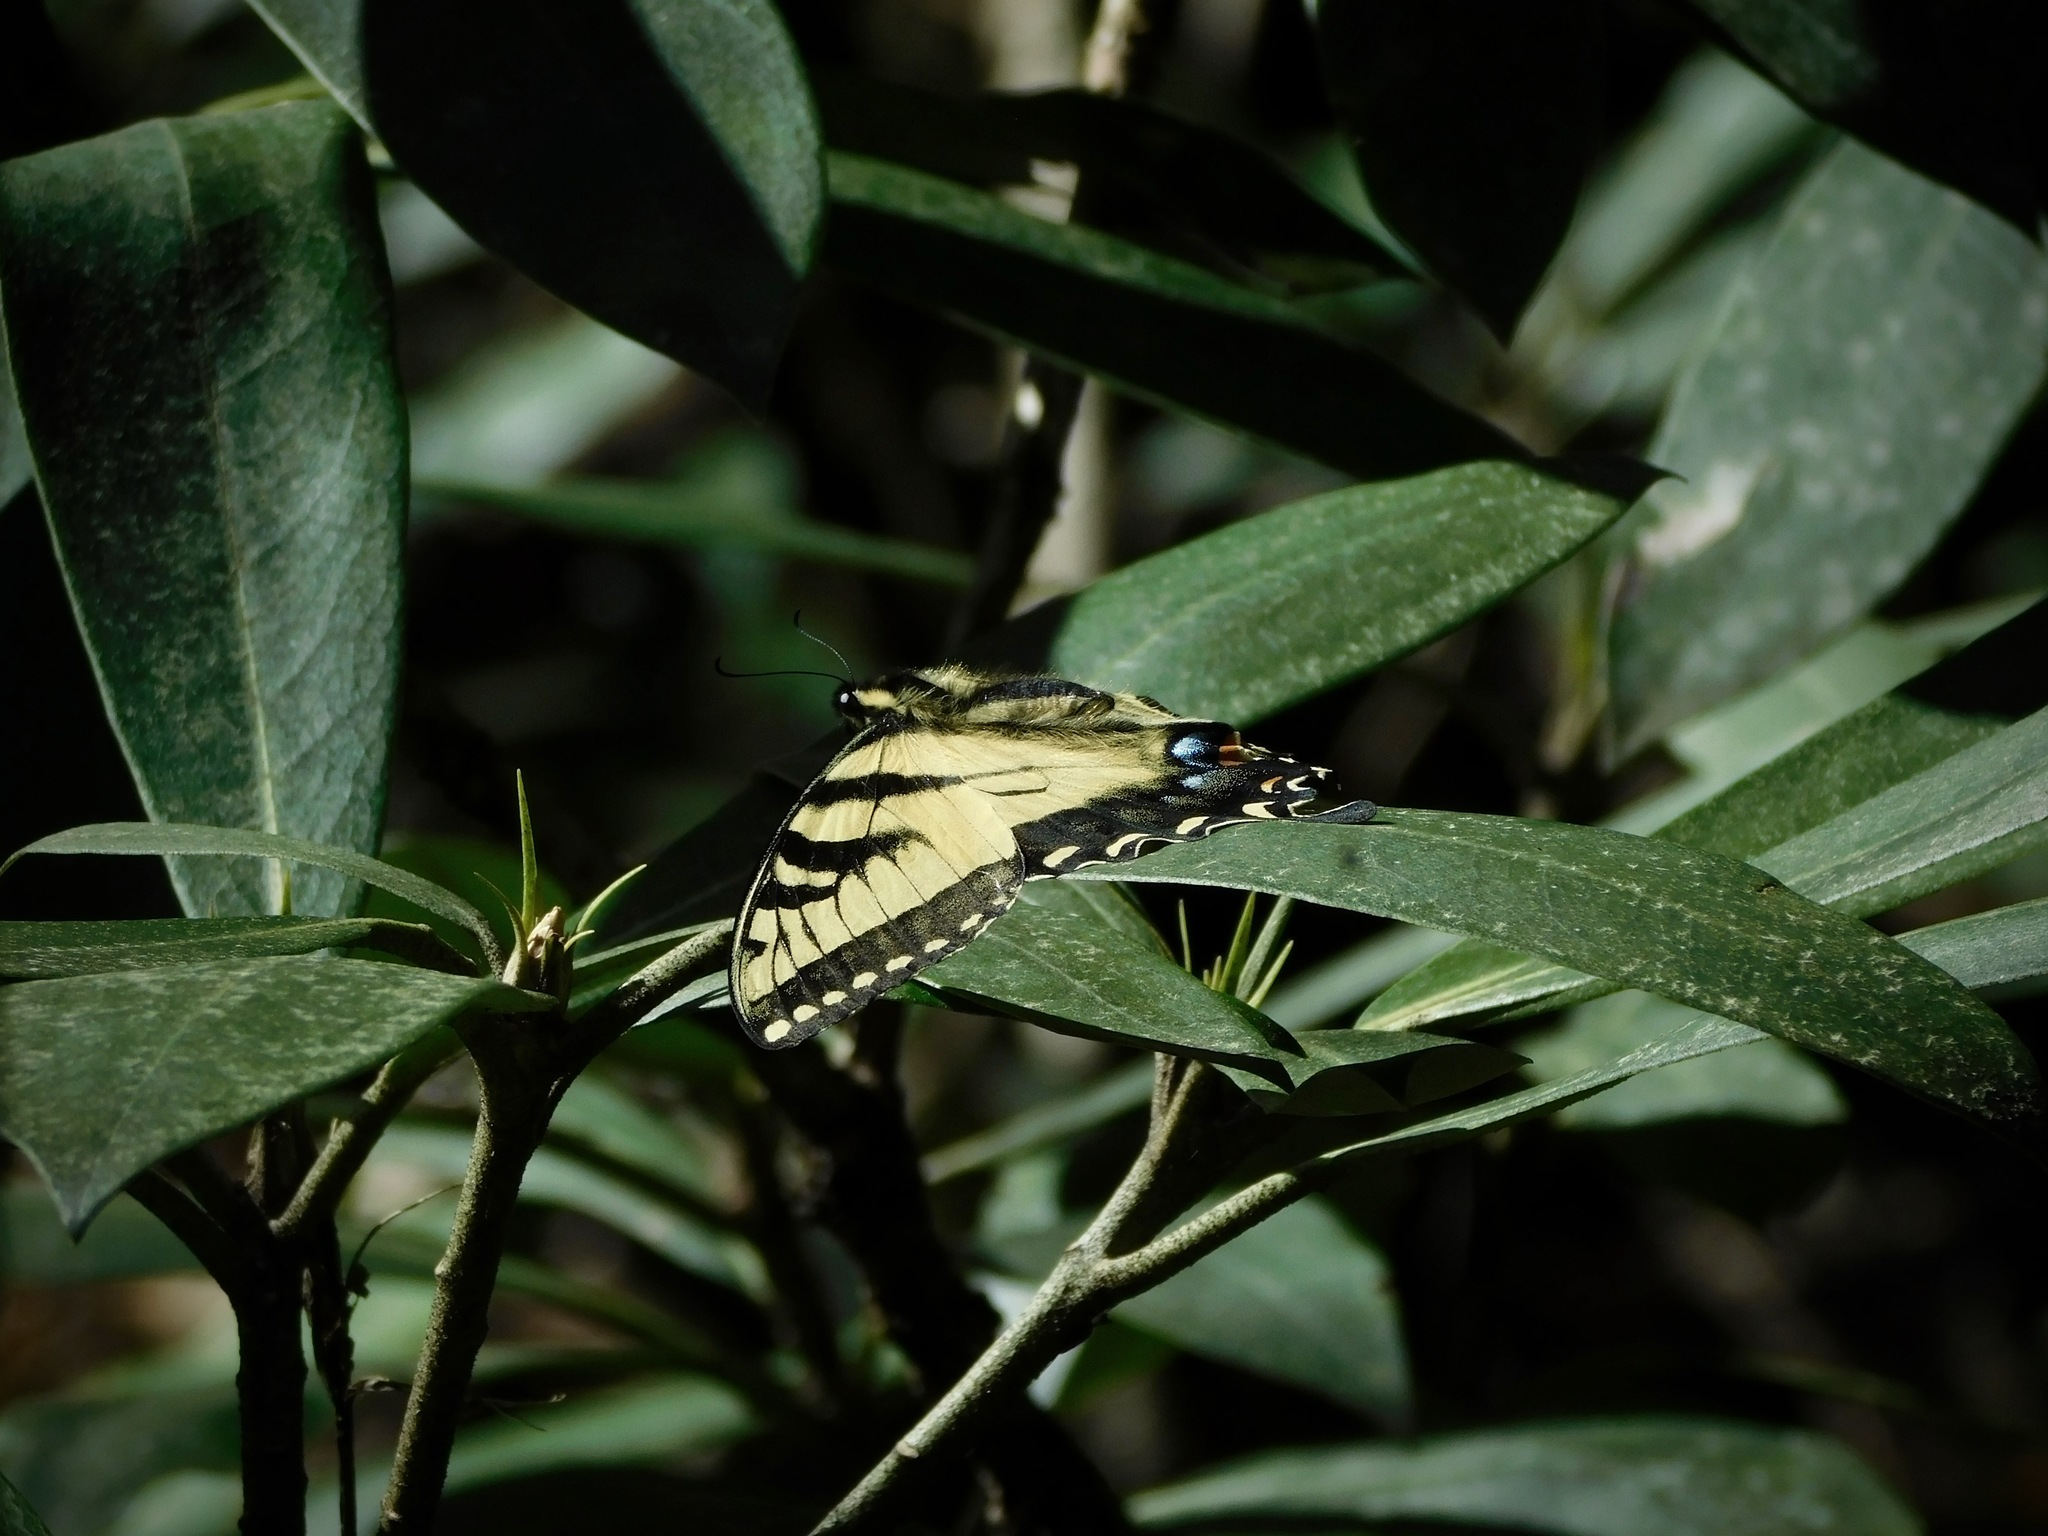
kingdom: Animalia
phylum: Arthropoda
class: Insecta
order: Lepidoptera
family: Papilionidae
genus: Papilio
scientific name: Papilio glaucus
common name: Tiger swallowtail
